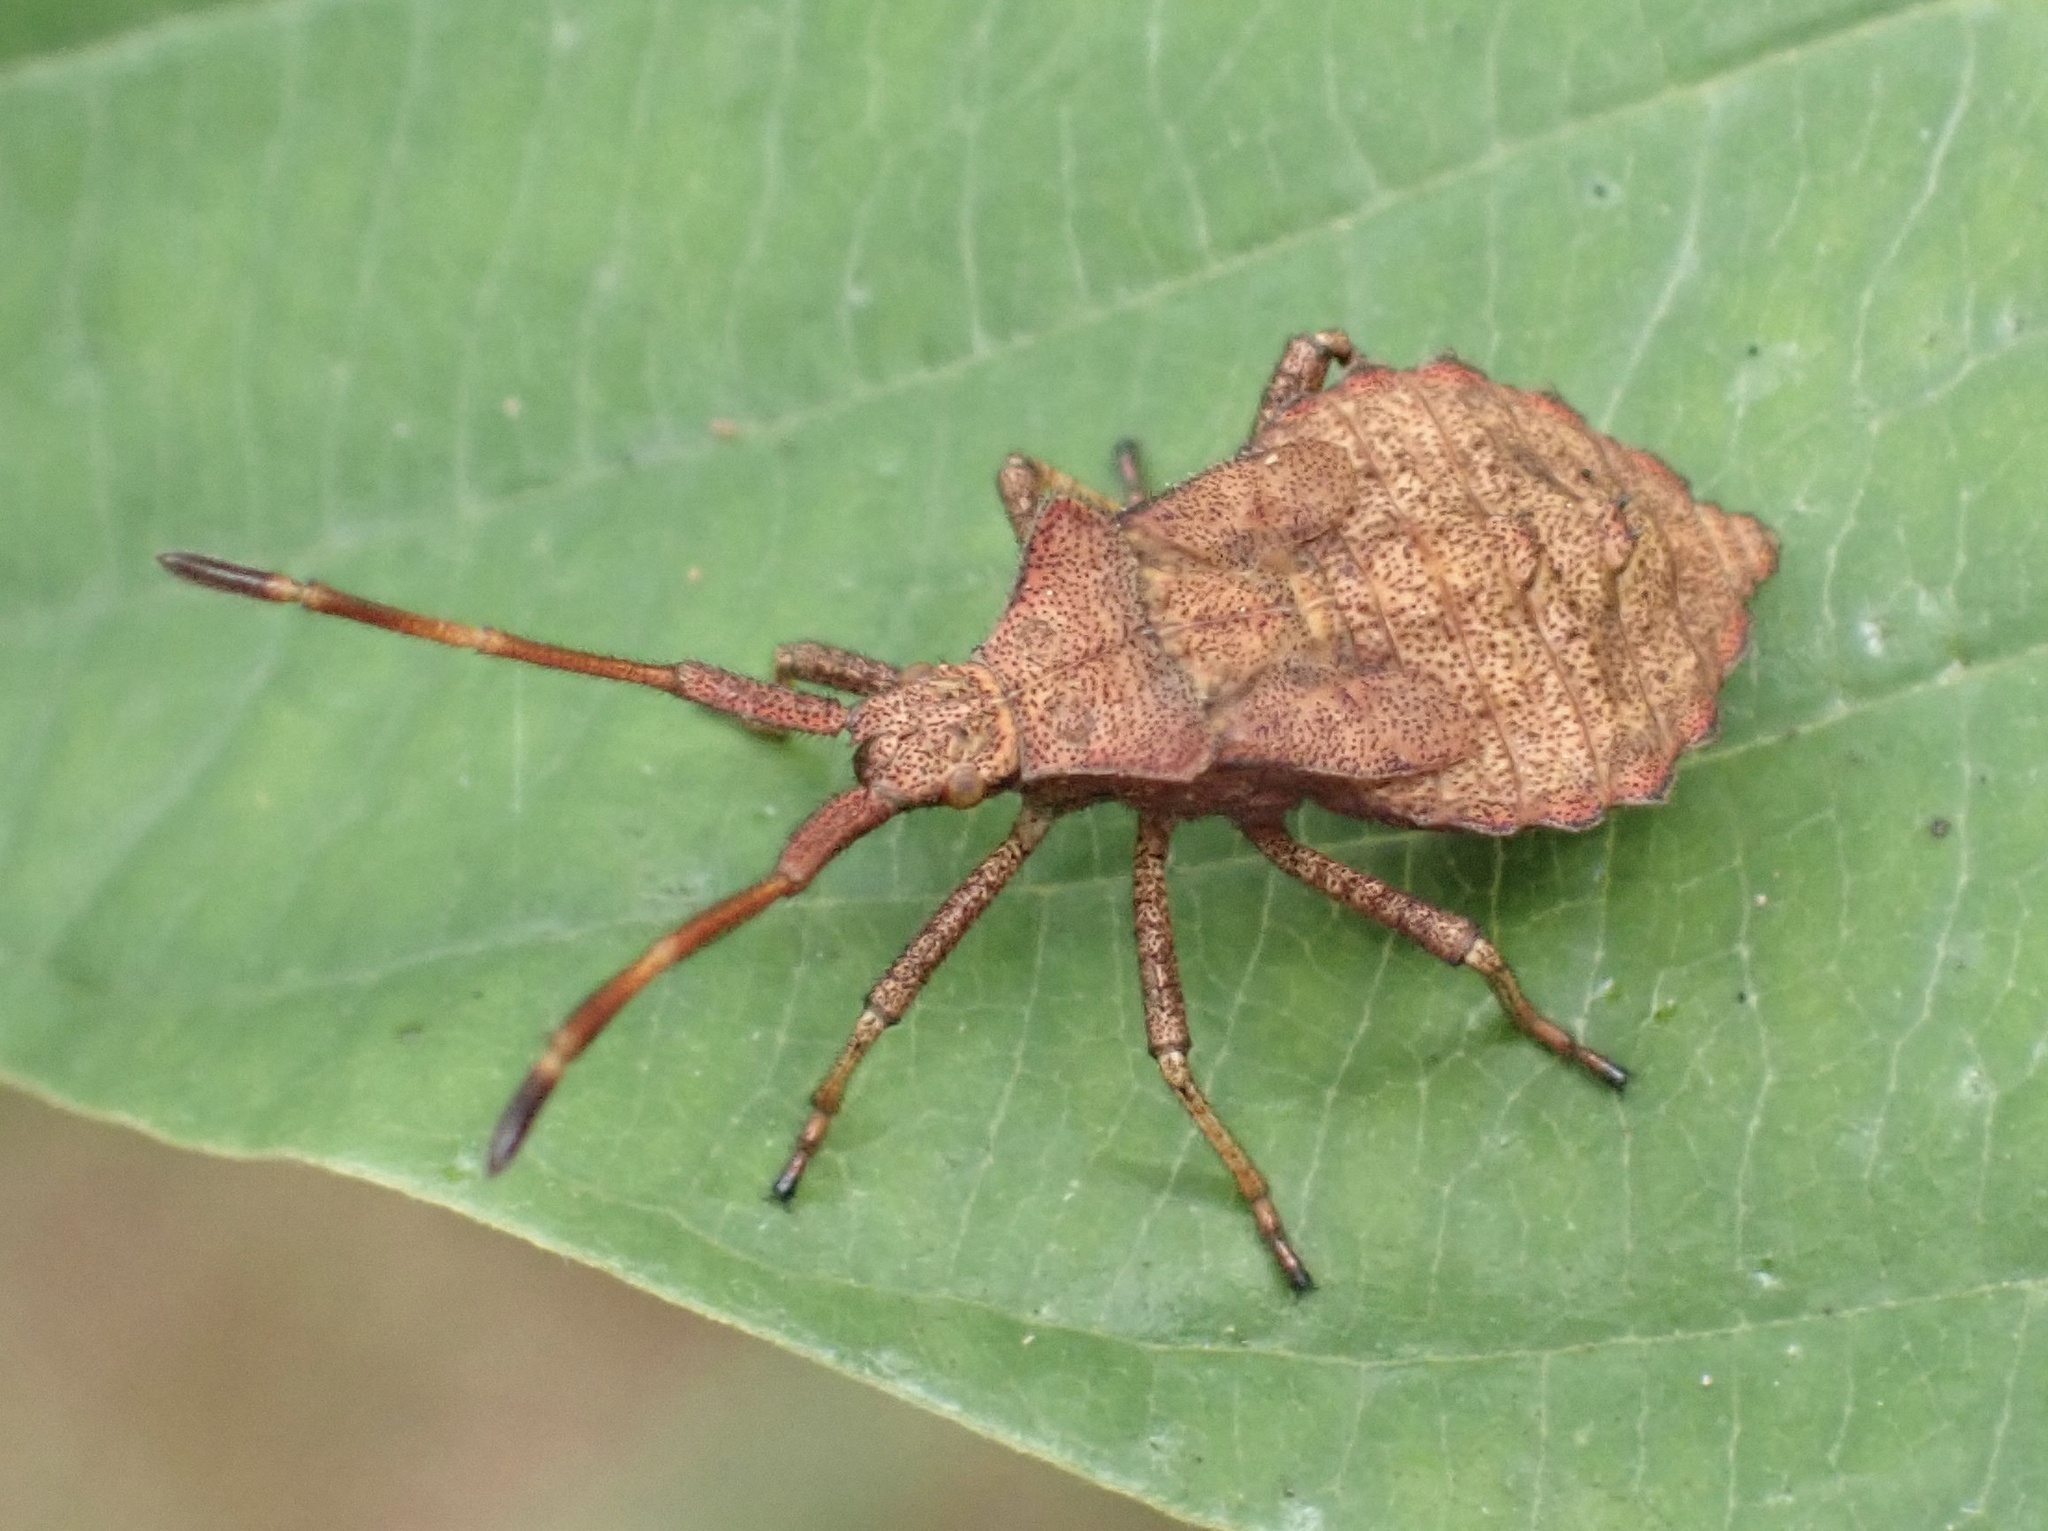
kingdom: Animalia
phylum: Arthropoda
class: Insecta
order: Hemiptera
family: Coreidae
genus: Coreus
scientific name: Coreus marginatus
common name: Dock bug
